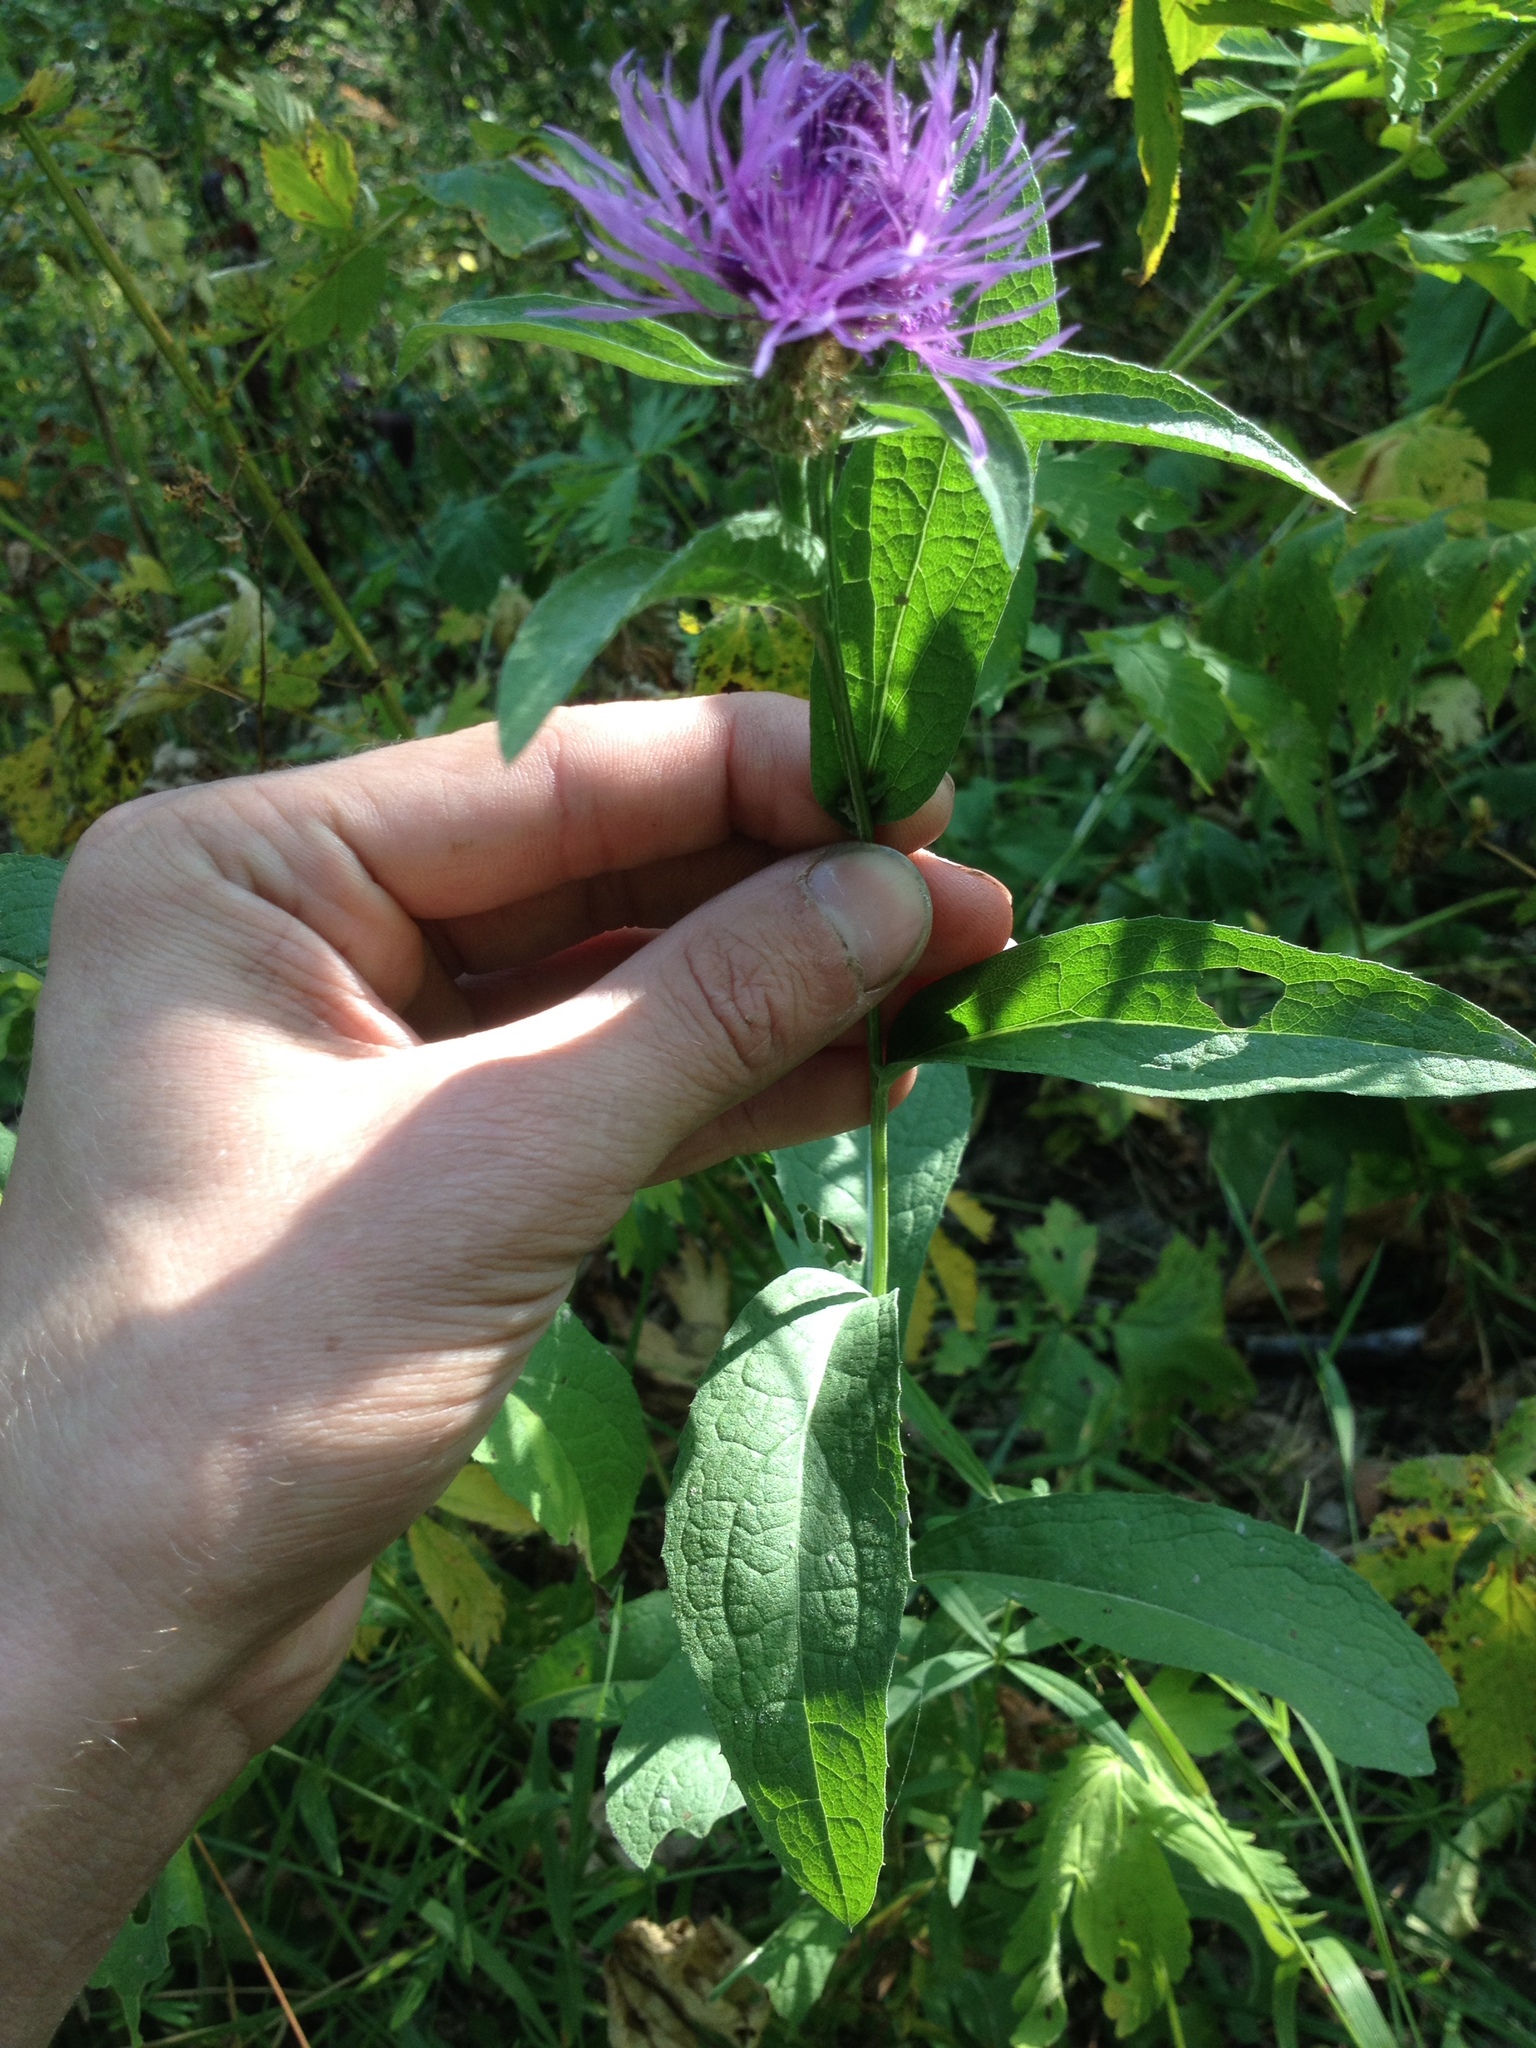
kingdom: Plantae
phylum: Tracheophyta
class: Magnoliopsida
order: Asterales
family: Asteraceae
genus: Centaurea
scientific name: Centaurea pseudophrygia
